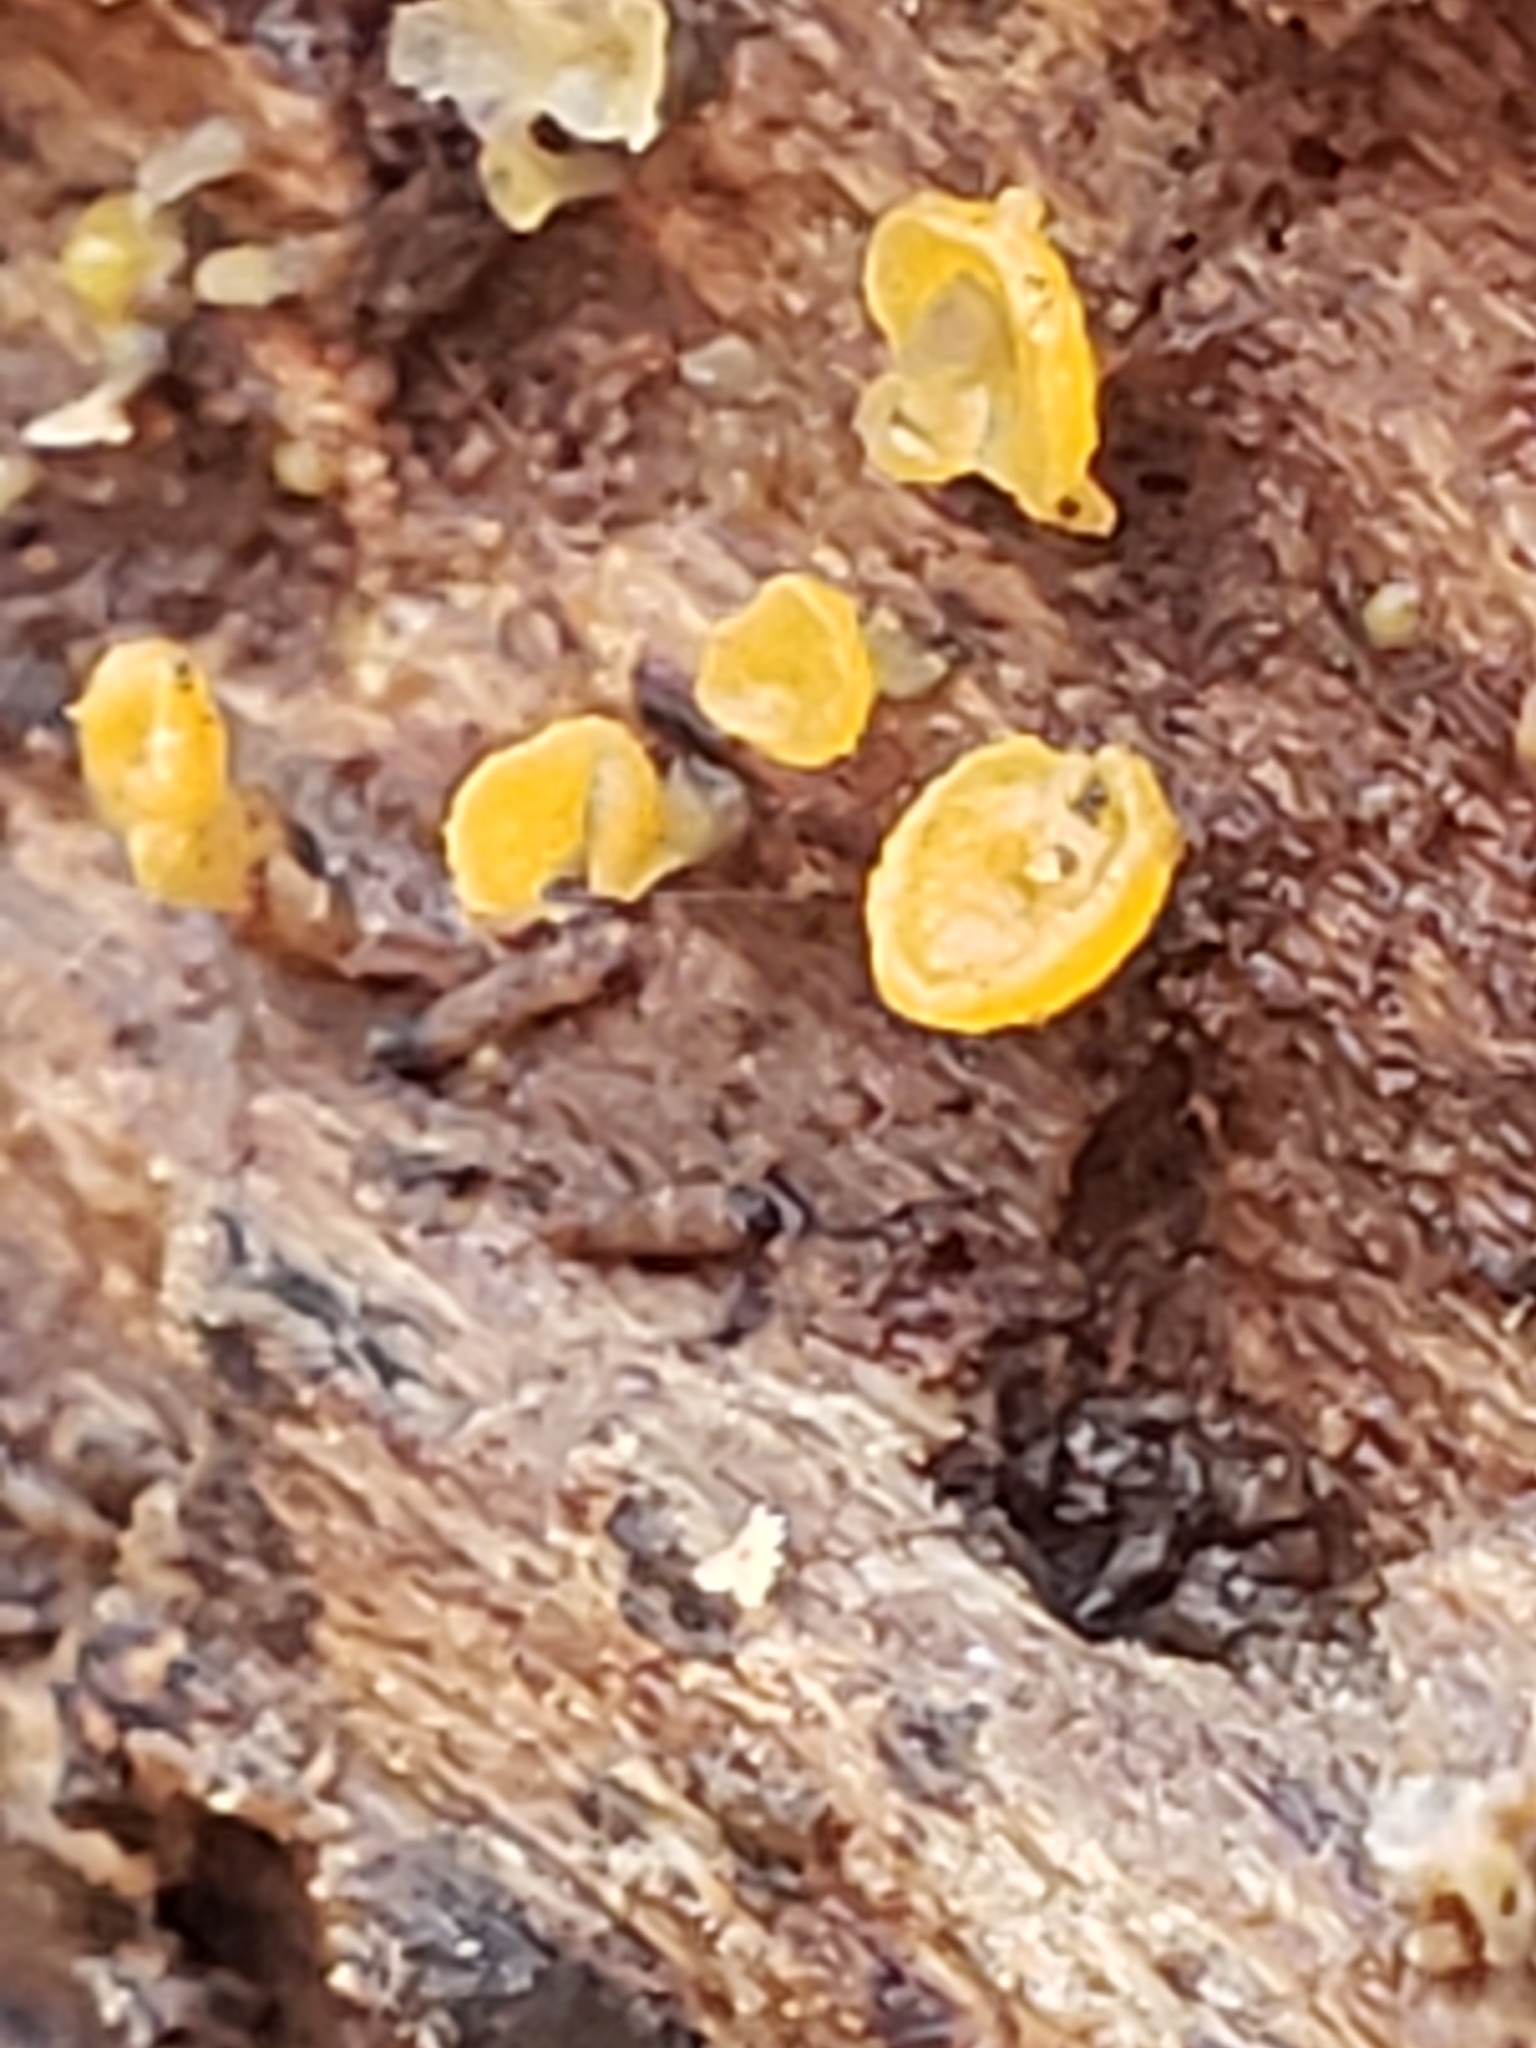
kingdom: Fungi
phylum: Ascomycota
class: Leotiomycetes
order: Helotiales
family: Pezizellaceae
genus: Calycina
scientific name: Calycina citrina
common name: Yellow fairy cups
